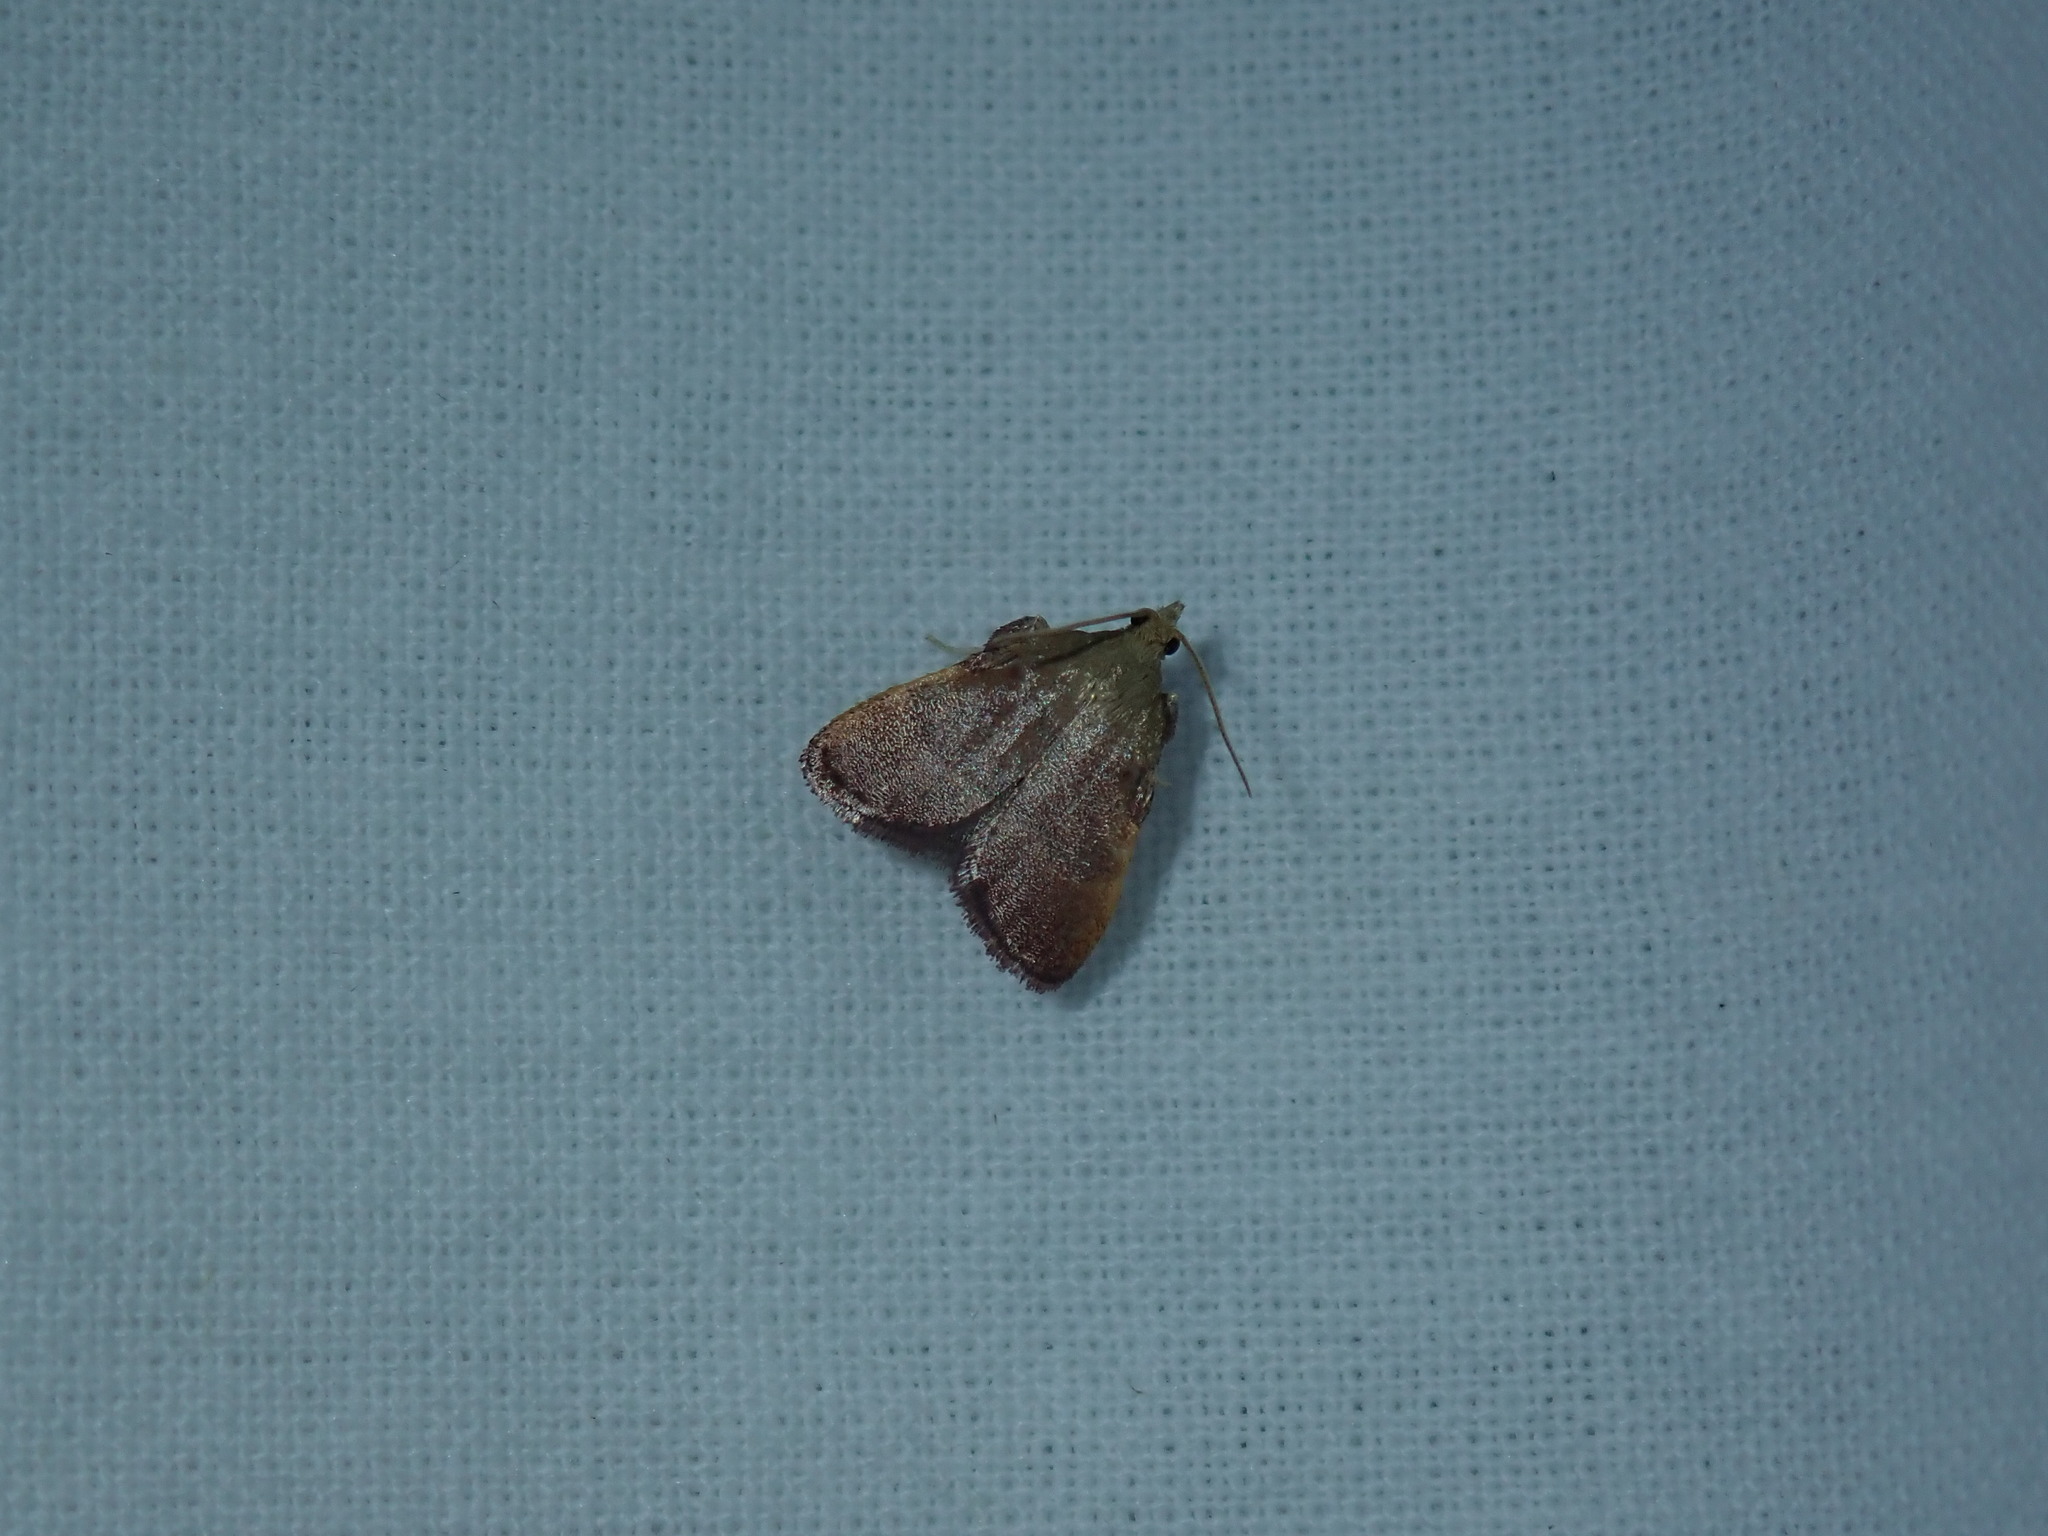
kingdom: Animalia
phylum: Arthropoda
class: Insecta
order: Lepidoptera
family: Pyralidae
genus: Condylolomia
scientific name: Condylolomia participialis
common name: Drab condylolomia moth
